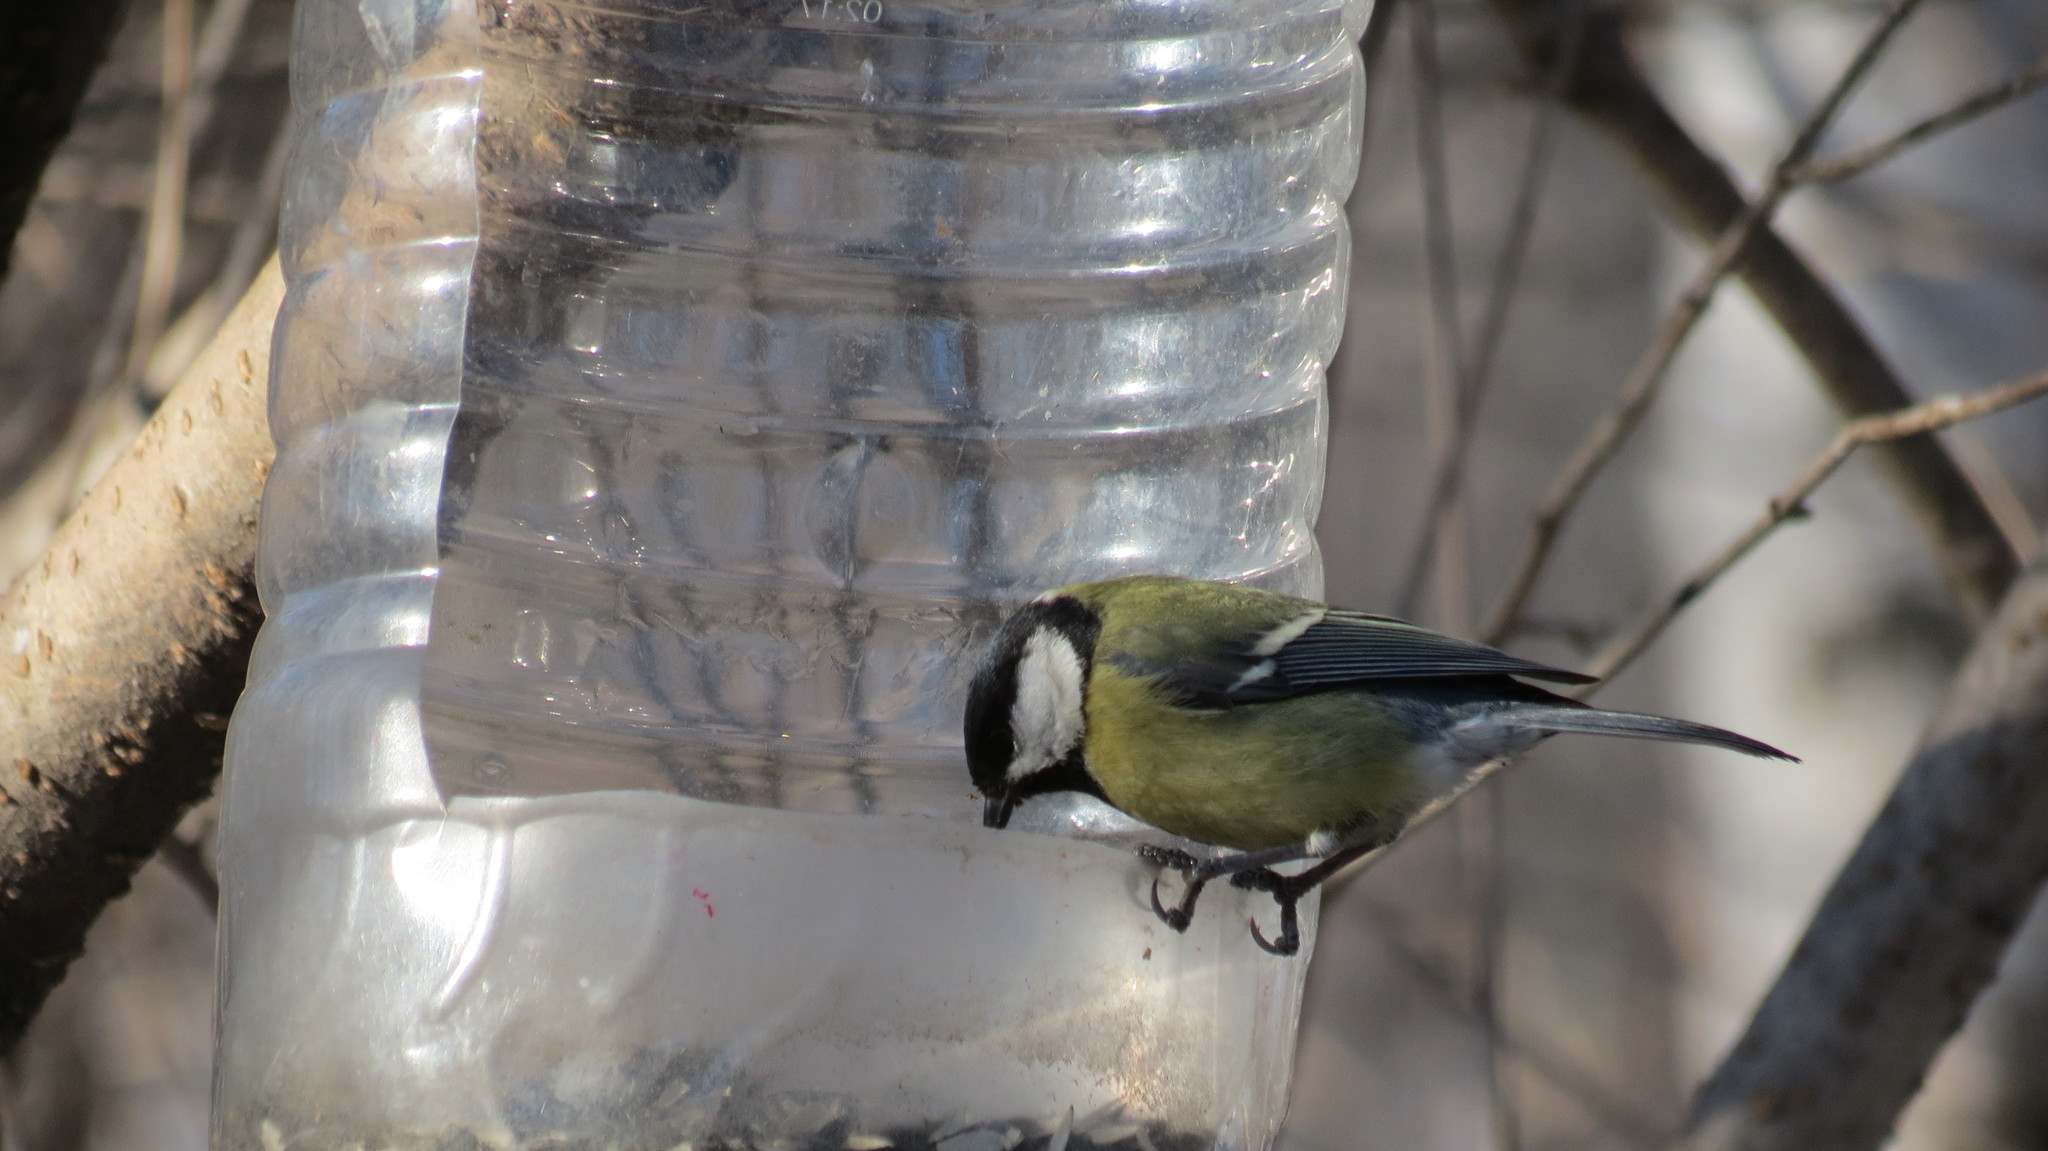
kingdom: Animalia
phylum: Chordata
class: Aves
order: Passeriformes
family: Paridae
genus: Parus
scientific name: Parus major
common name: Great tit
